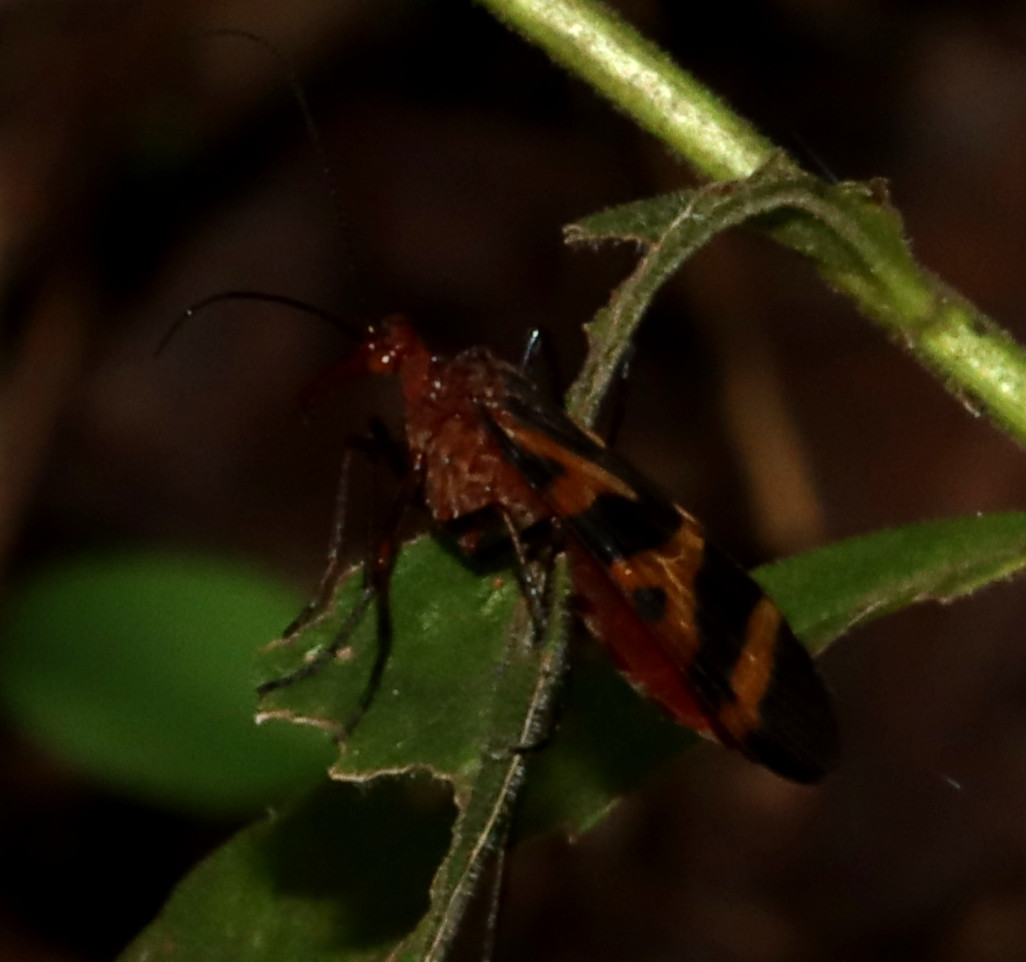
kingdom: Animalia
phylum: Arthropoda
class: Insecta
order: Mecoptera
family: Panorpidae
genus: Panorpa
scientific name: Panorpa nuptialis
